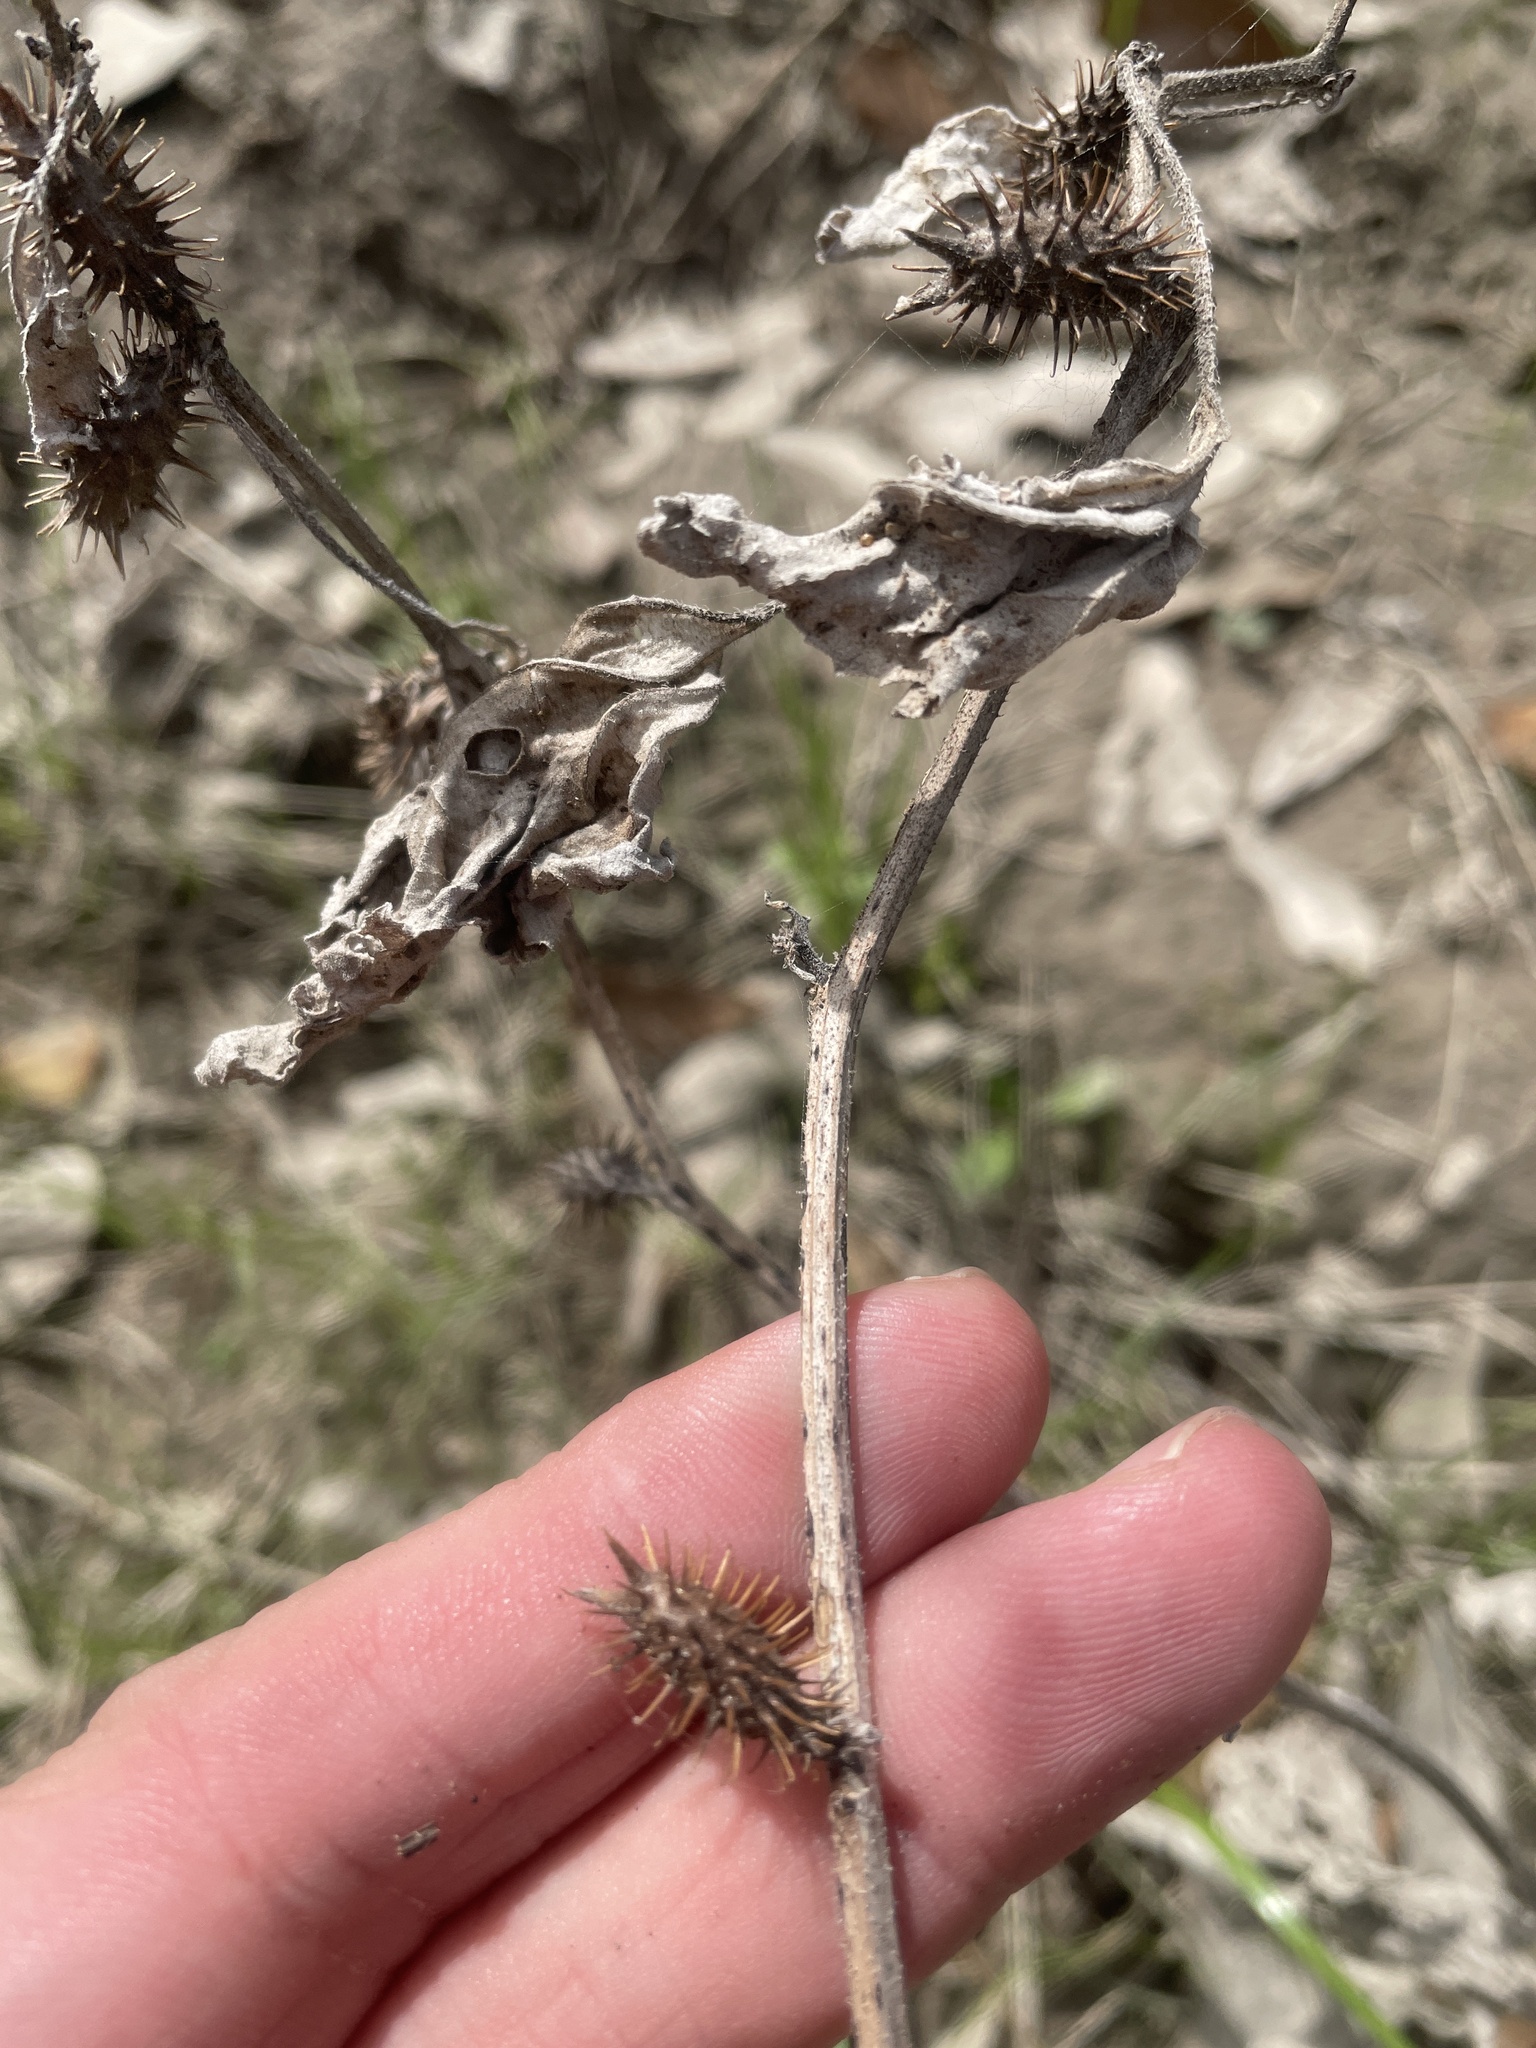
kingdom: Plantae
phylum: Tracheophyta
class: Magnoliopsida
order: Asterales
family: Asteraceae
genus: Xanthium
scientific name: Xanthium strumarium
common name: Rough cocklebur
